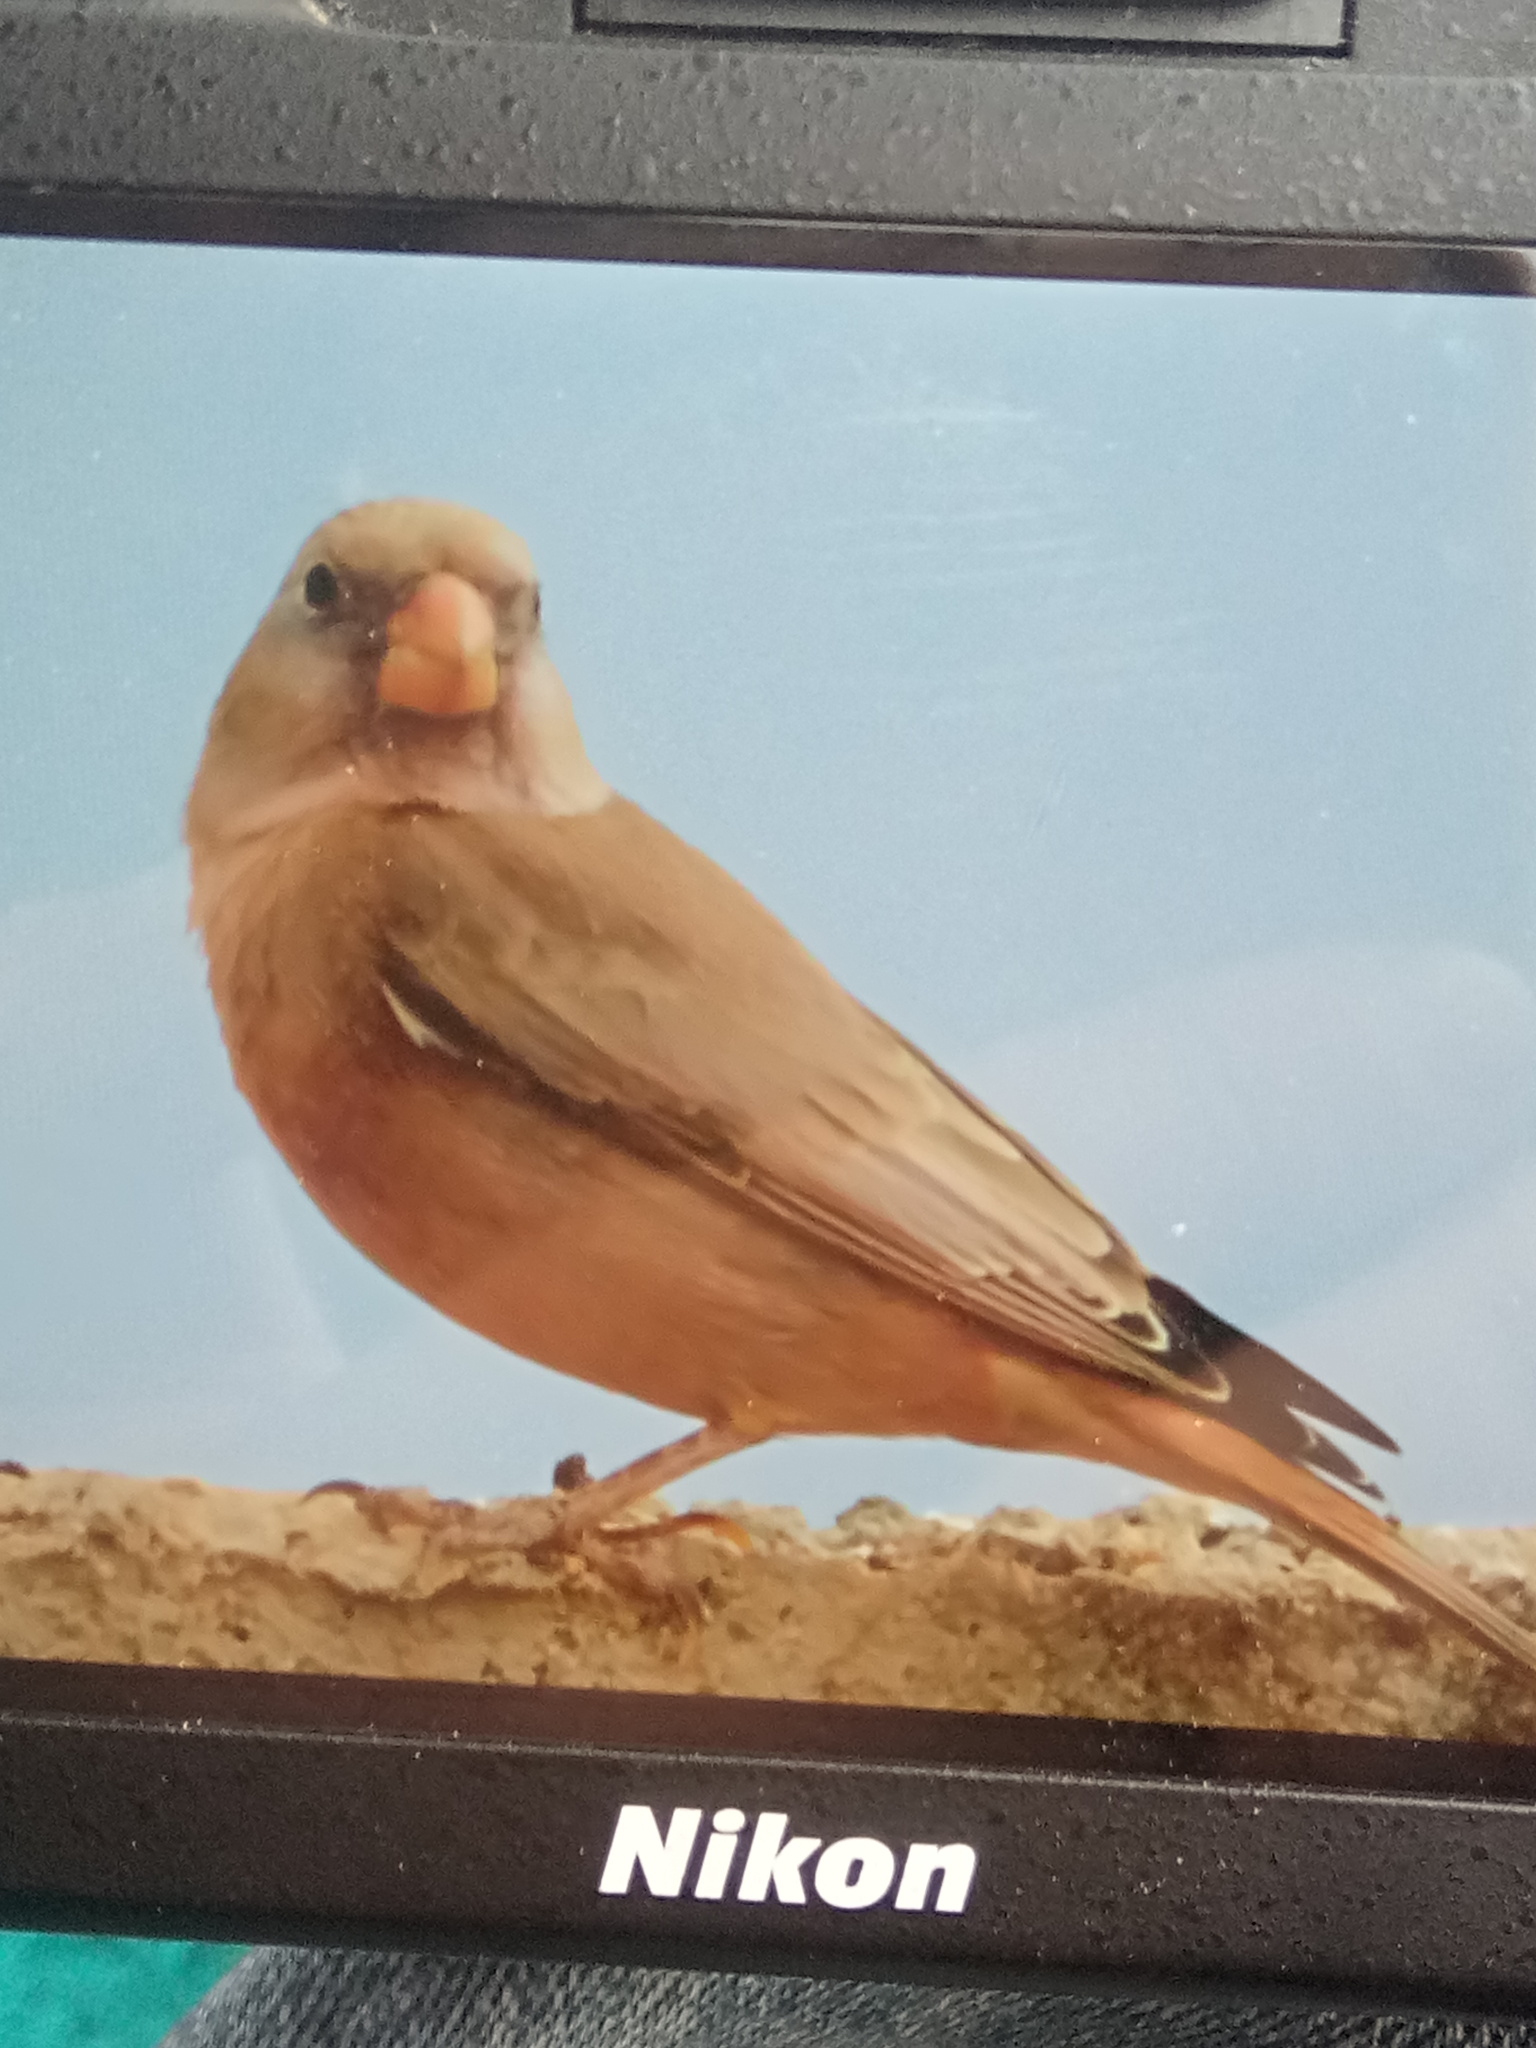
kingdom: Animalia
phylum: Chordata
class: Aves
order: Passeriformes
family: Fringillidae
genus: Bucanetes
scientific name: Bucanetes githagineus
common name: Trumpeter finch
